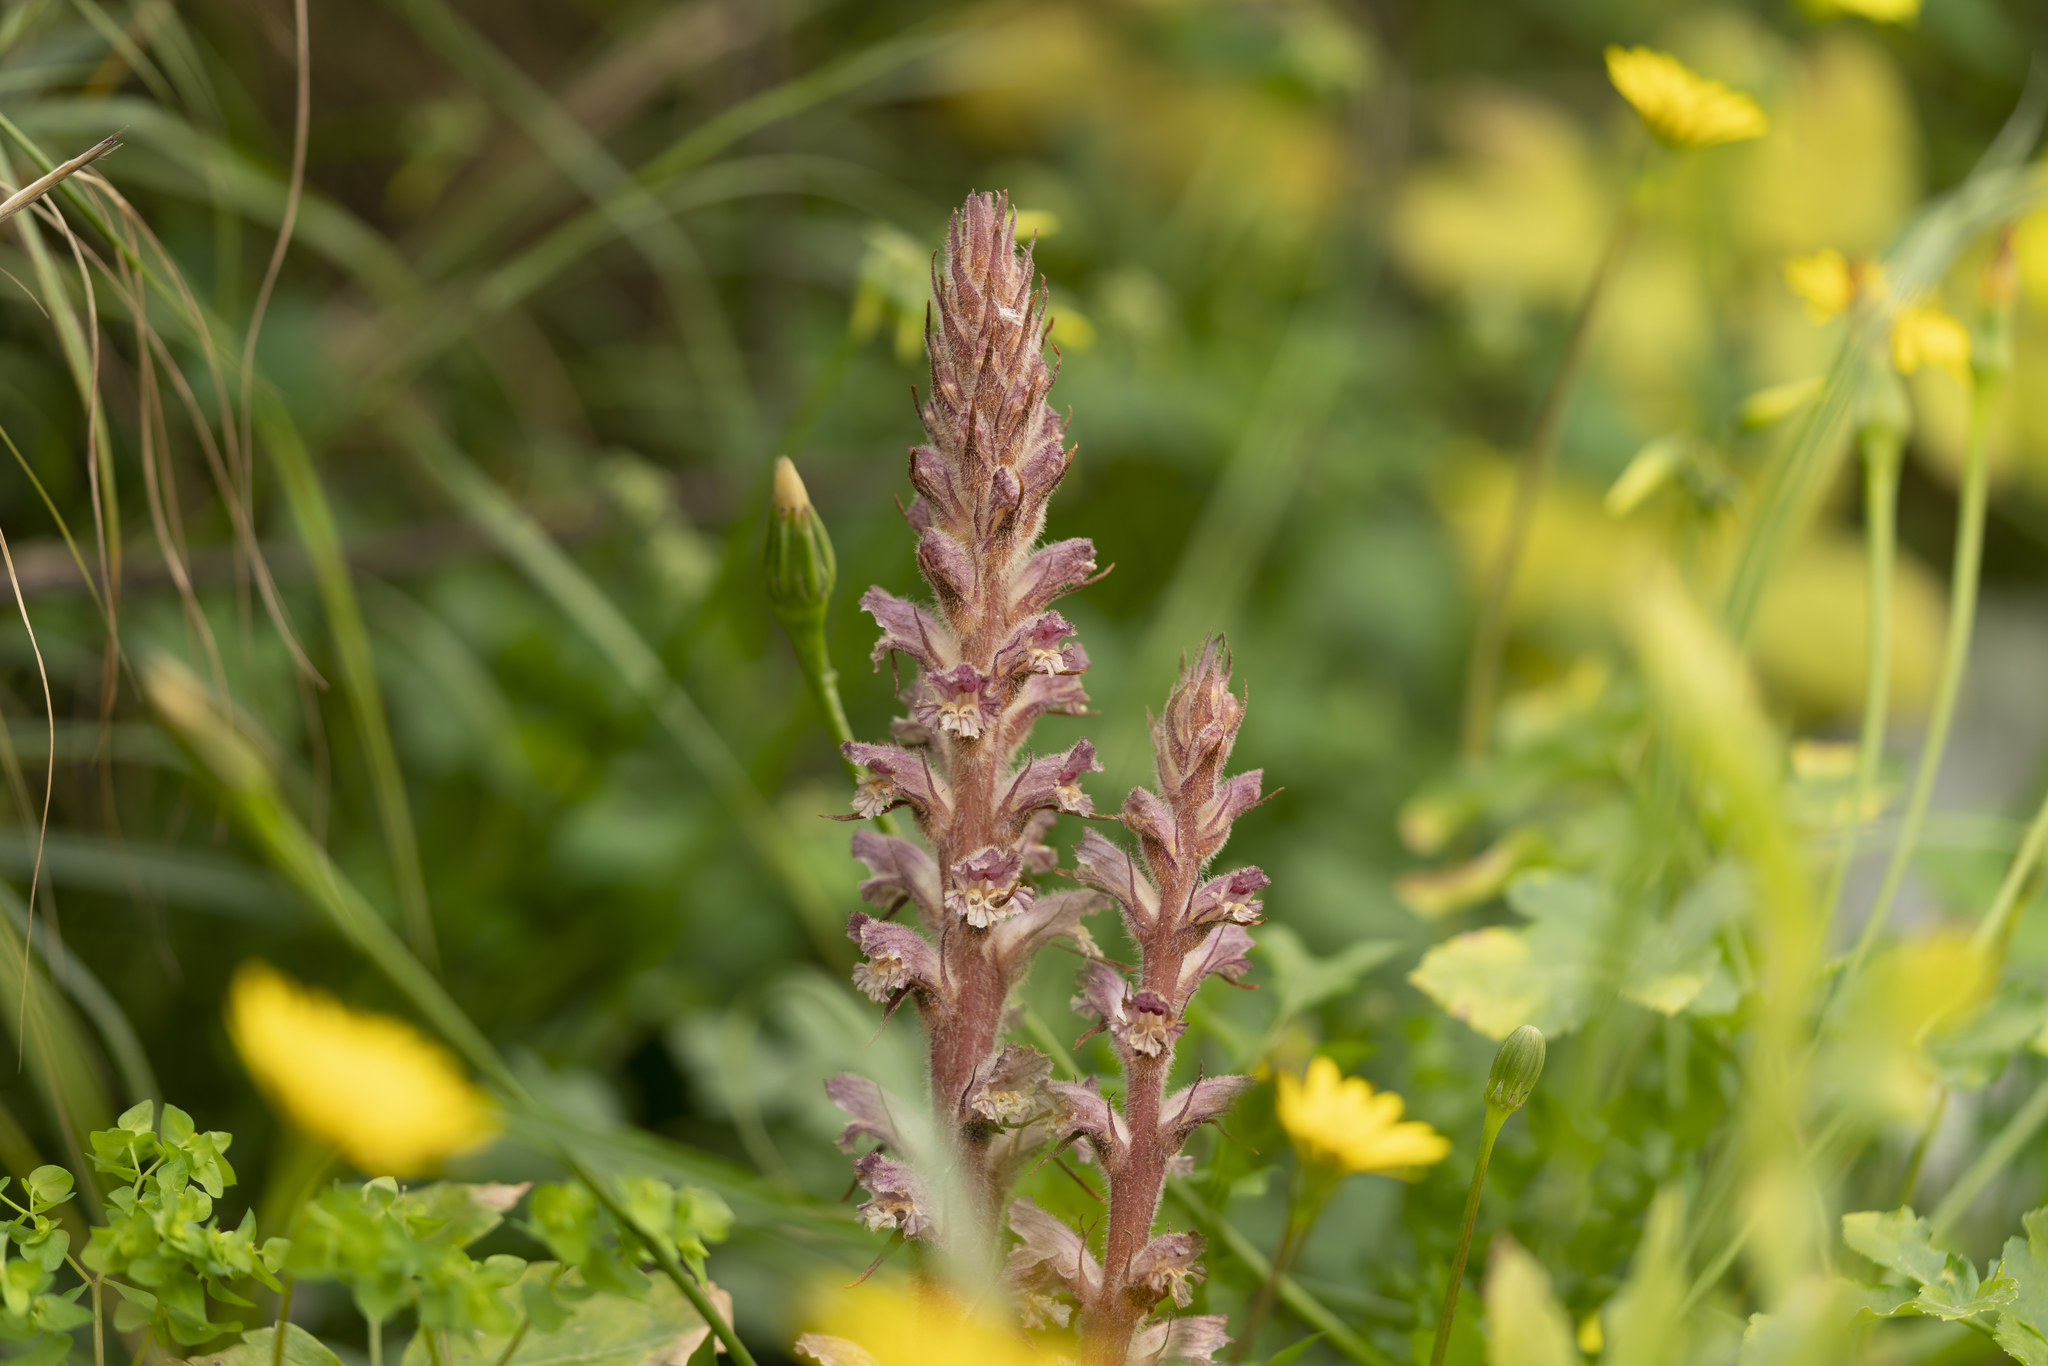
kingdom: Plantae
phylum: Tracheophyta
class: Magnoliopsida
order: Lamiales
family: Orobanchaceae
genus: Orobanche
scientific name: Orobanche pubescens
